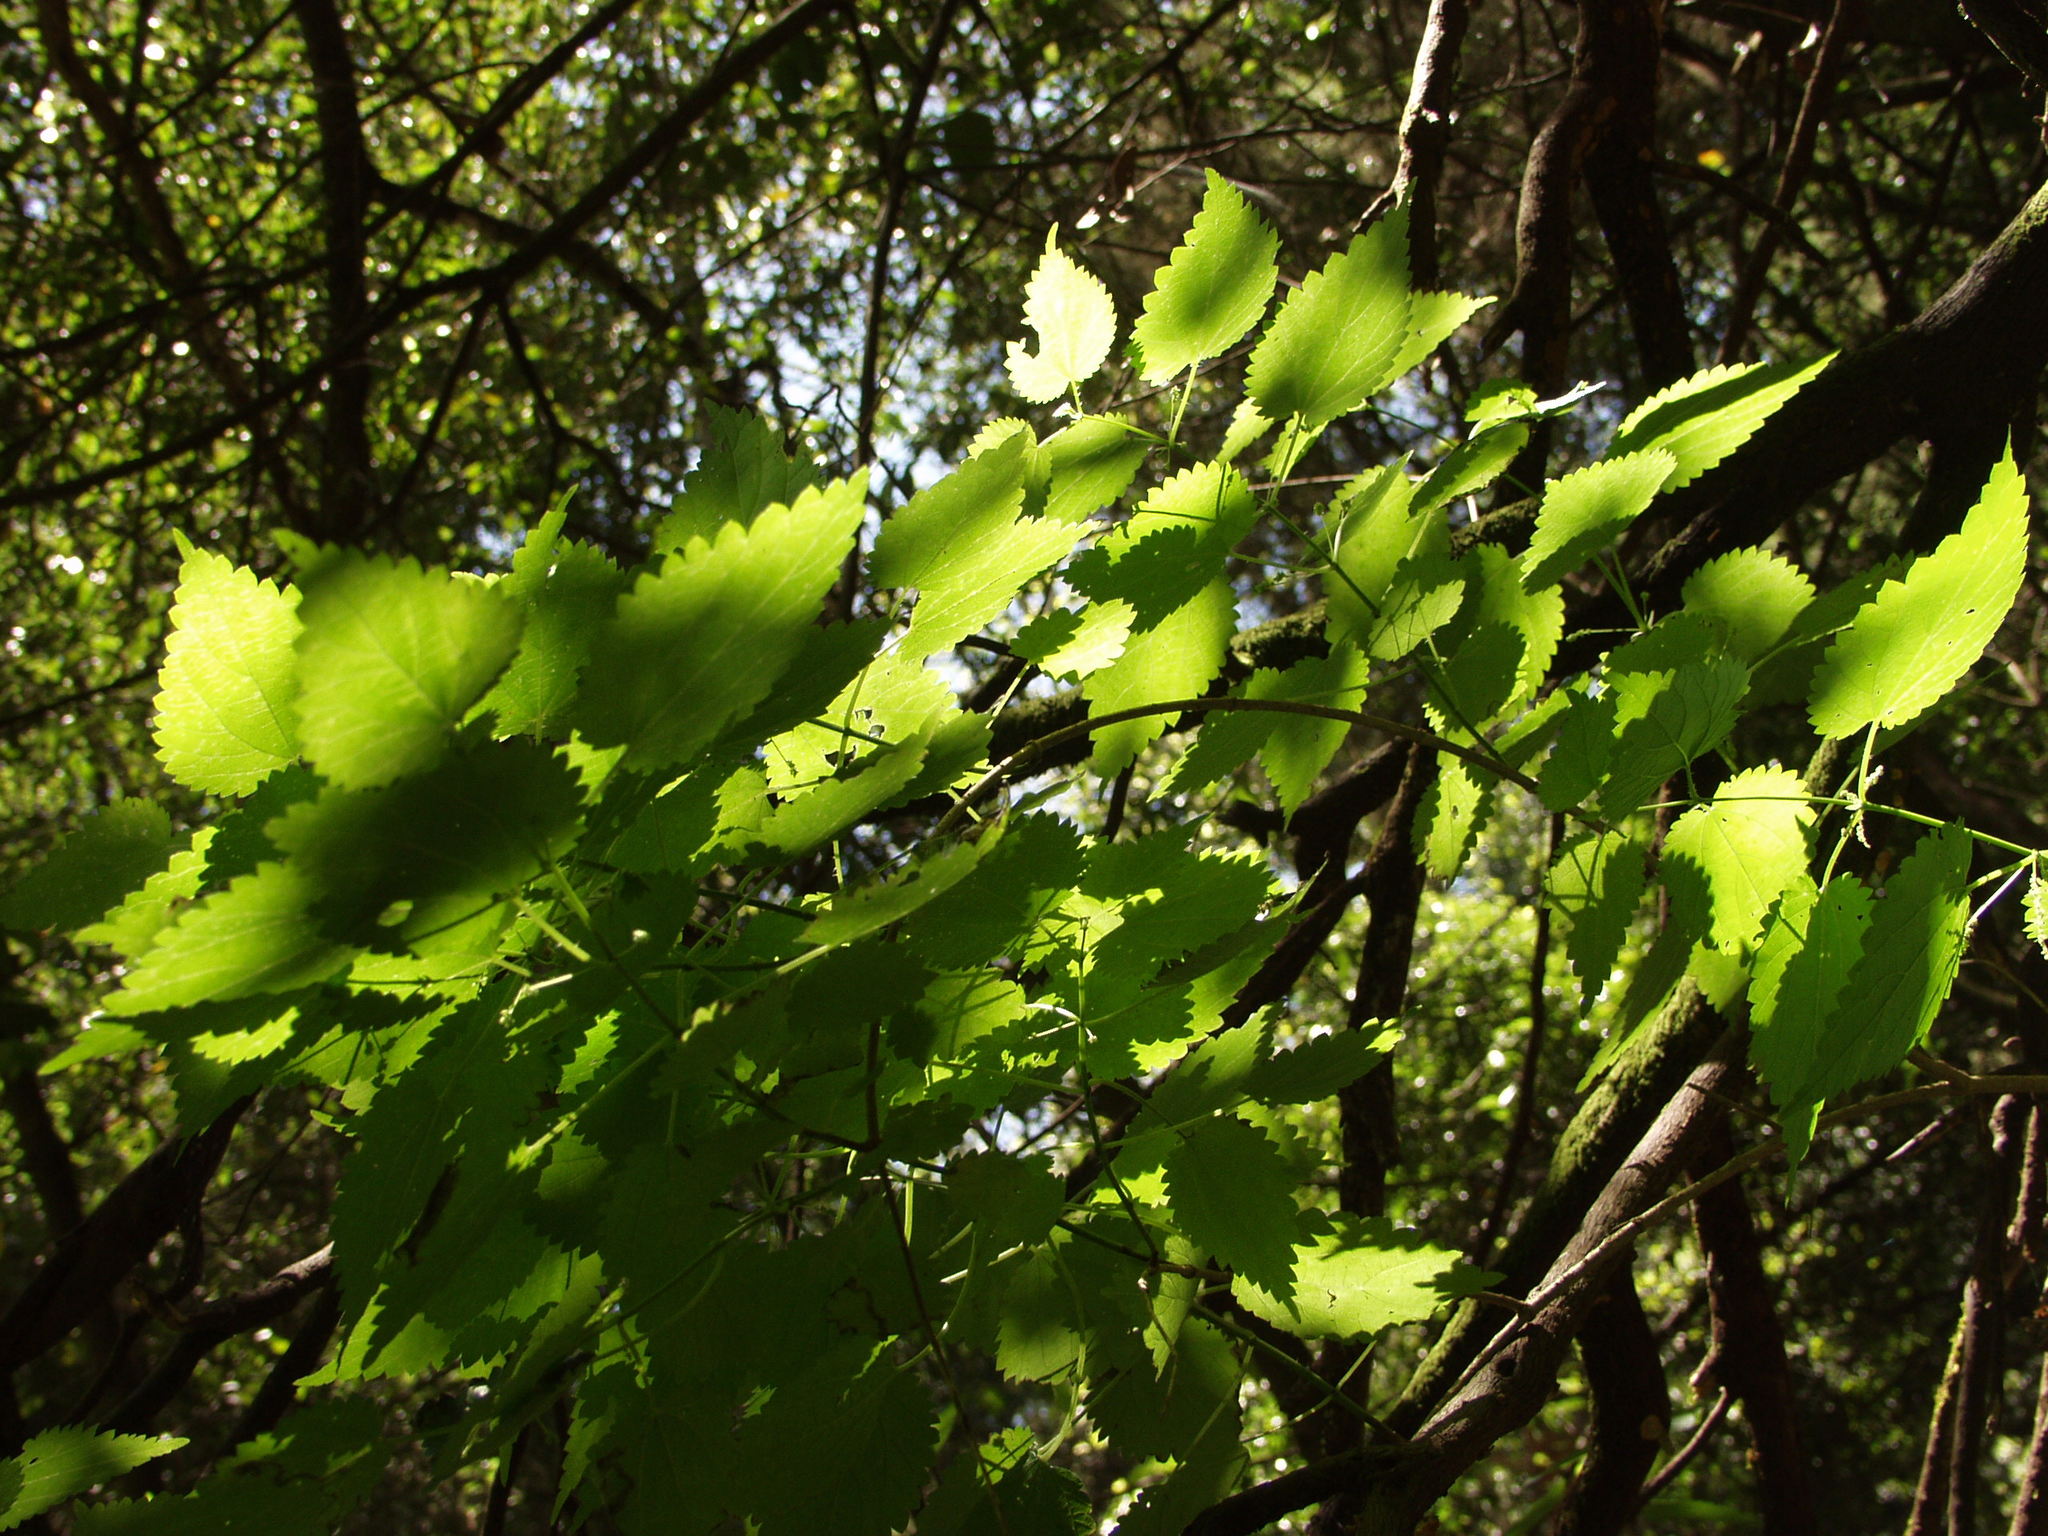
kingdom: Plantae
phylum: Tracheophyta
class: Magnoliopsida
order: Rosales
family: Urticaceae
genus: Urtica
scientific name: Urtica morifolia
